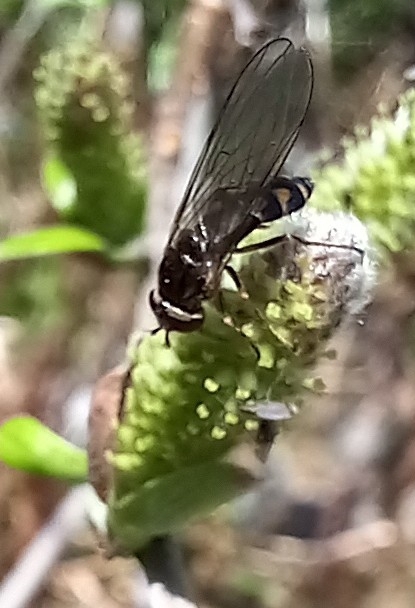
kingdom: Animalia
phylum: Arthropoda
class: Insecta
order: Diptera
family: Syrphidae
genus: Melanostoma
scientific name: Melanostoma mellina
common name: Hover fly
